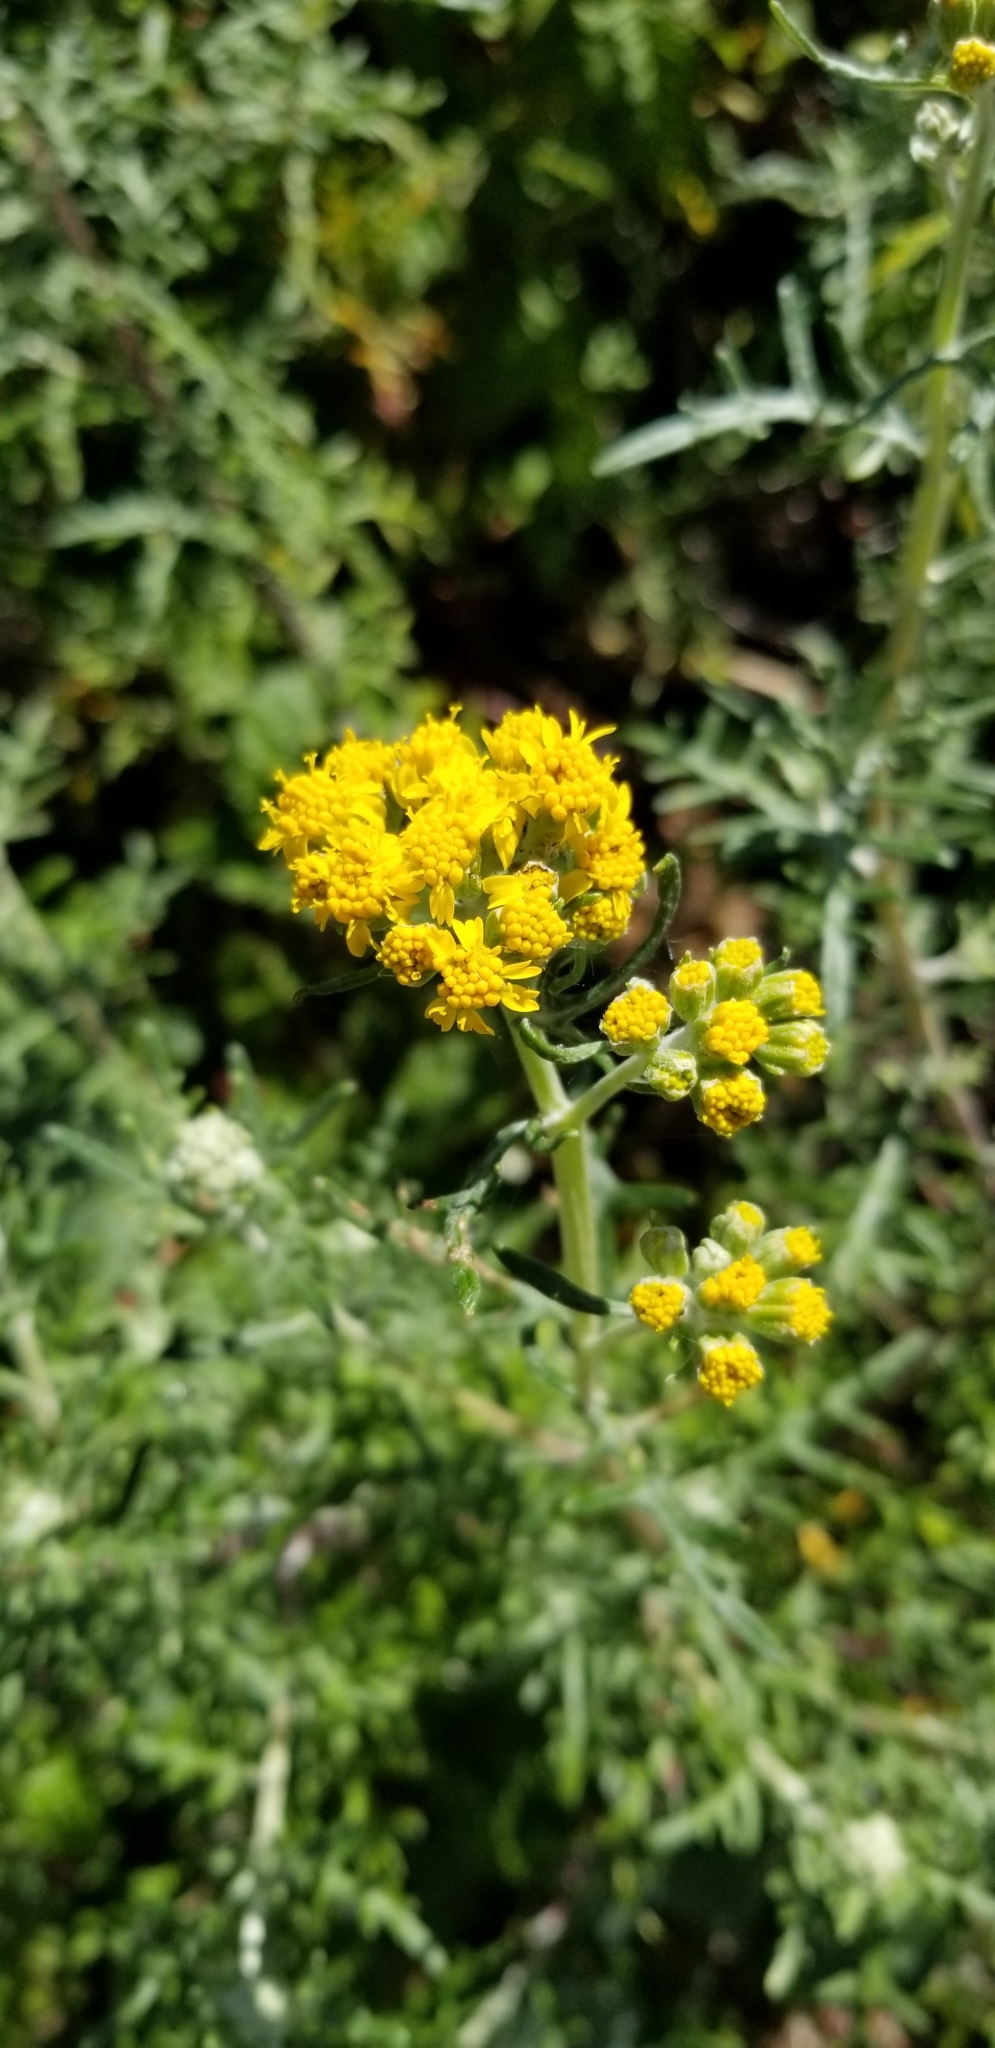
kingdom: Plantae
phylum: Tracheophyta
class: Magnoliopsida
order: Asterales
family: Asteraceae
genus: Eriophyllum
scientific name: Eriophyllum confertiflorum
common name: Golden-yarrow
